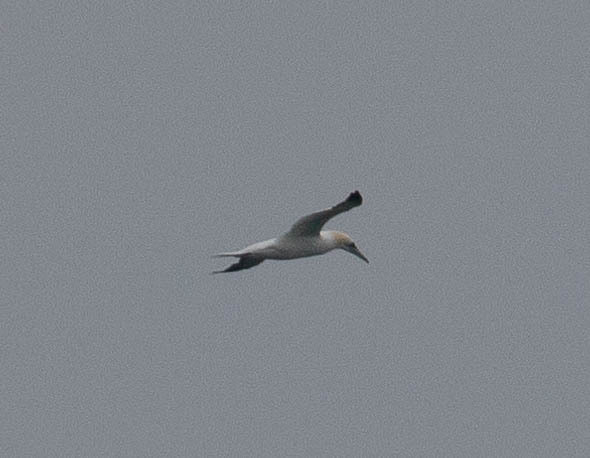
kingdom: Animalia
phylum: Chordata
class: Aves
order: Suliformes
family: Sulidae
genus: Morus
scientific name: Morus bassanus
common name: Northern gannet
